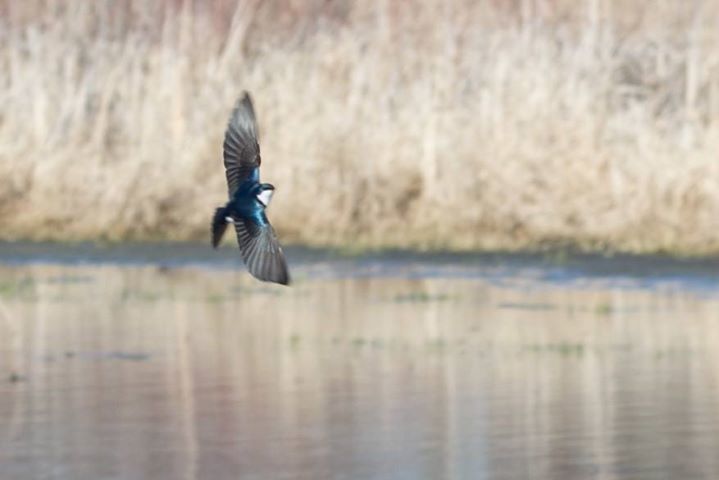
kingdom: Animalia
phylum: Chordata
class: Aves
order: Passeriformes
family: Hirundinidae
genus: Tachycineta
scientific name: Tachycineta bicolor
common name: Tree swallow
